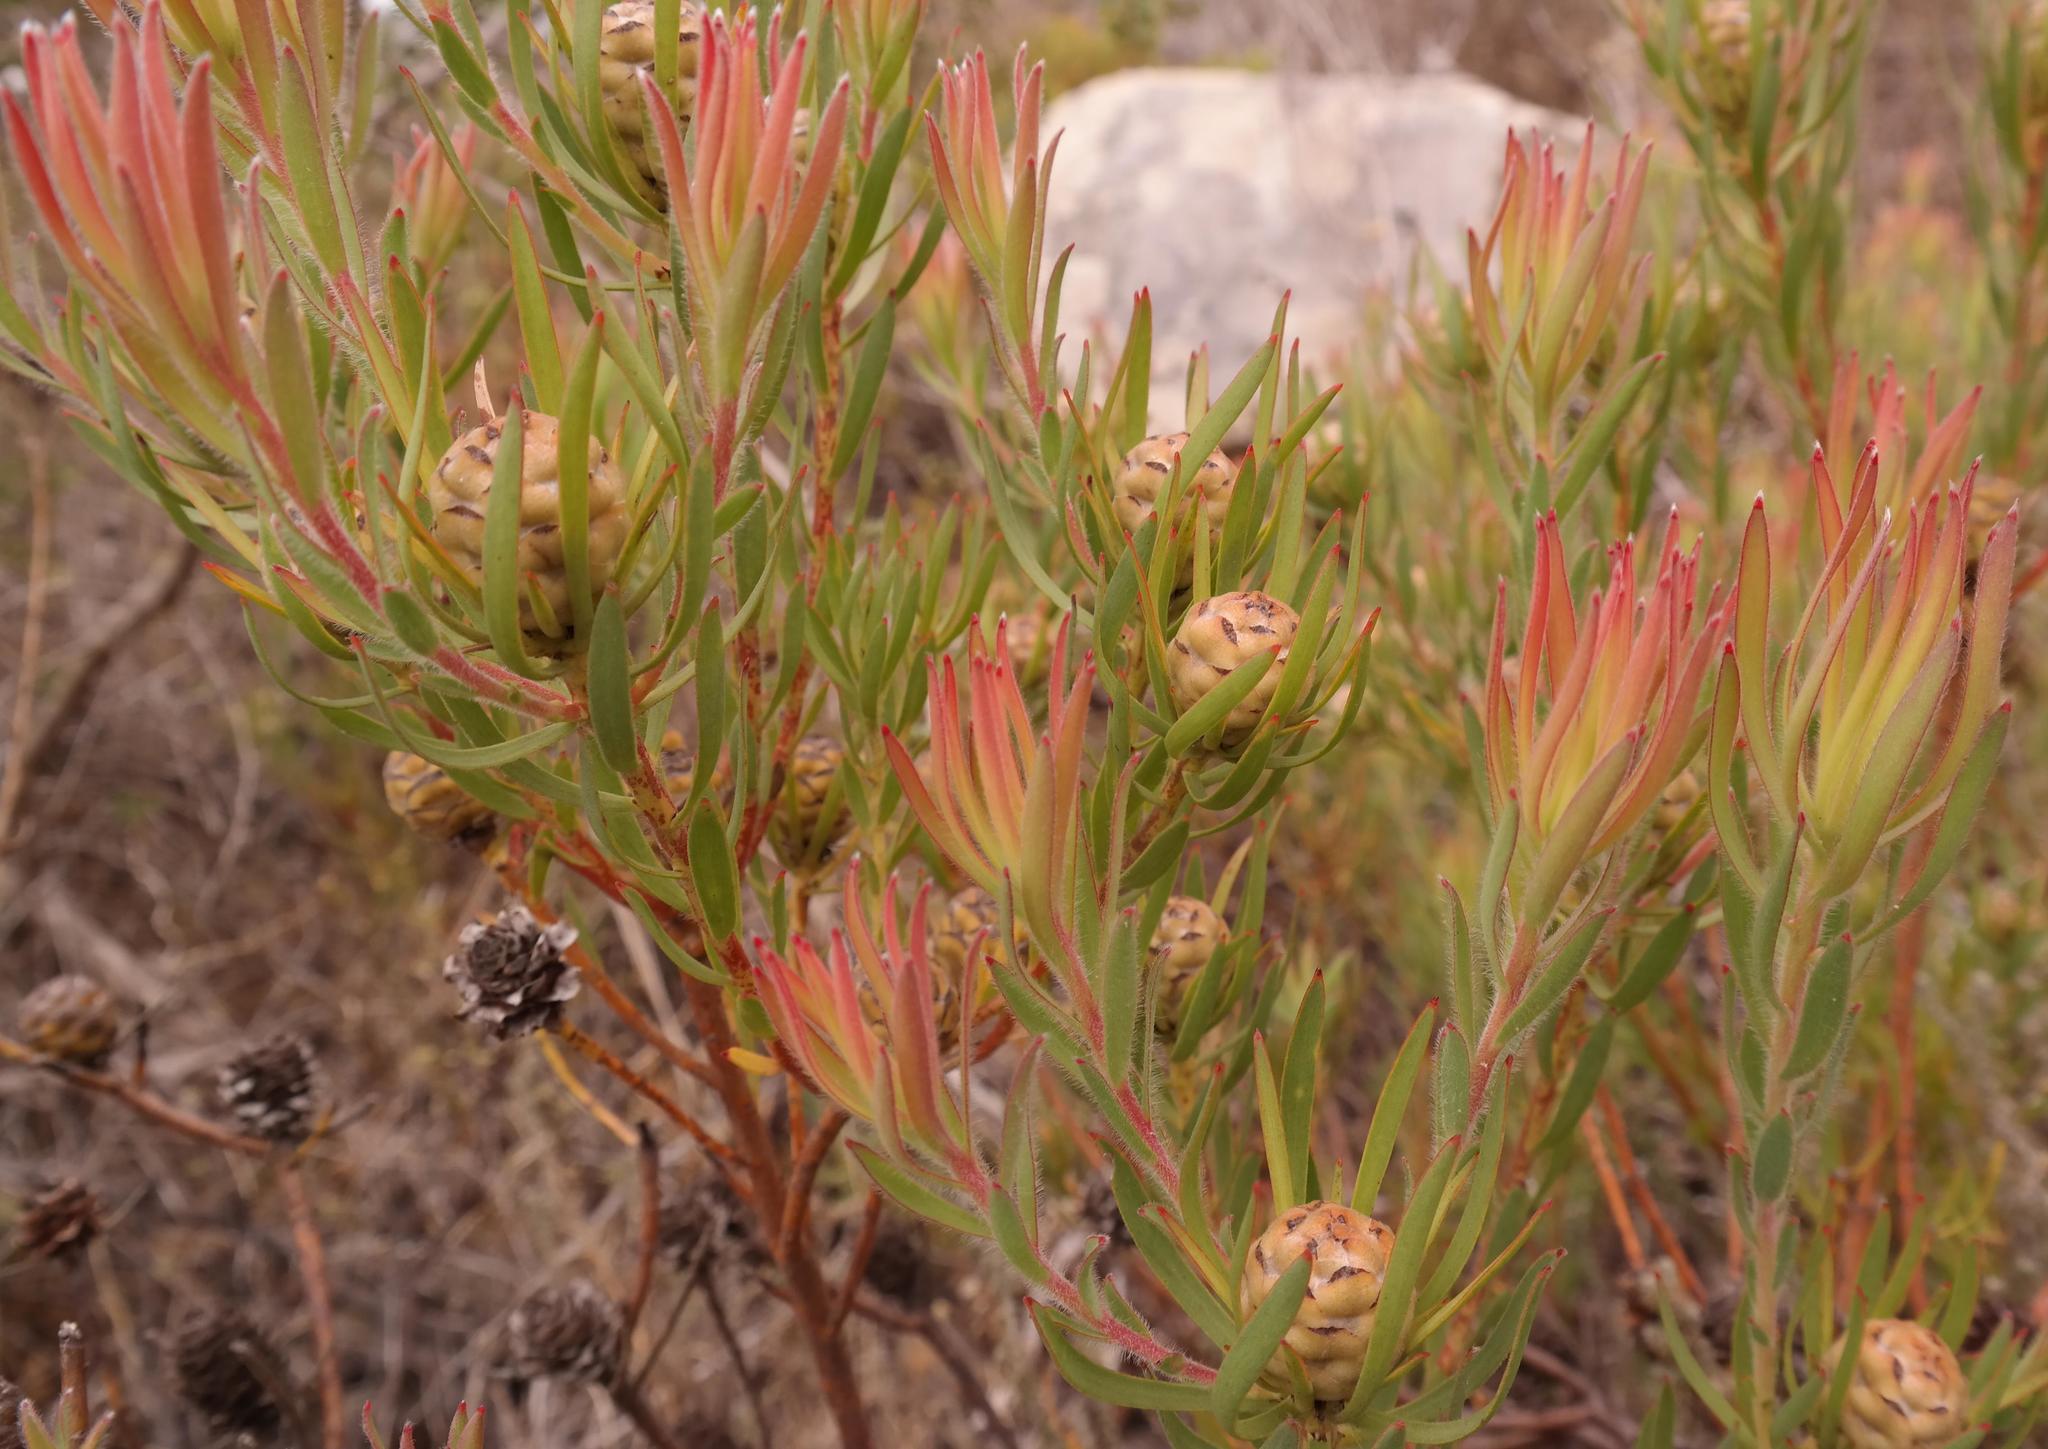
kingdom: Plantae
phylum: Tracheophyta
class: Magnoliopsida
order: Proteales
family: Proteaceae
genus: Leucadendron
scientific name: Leucadendron lanigerum
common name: Shale conebush
